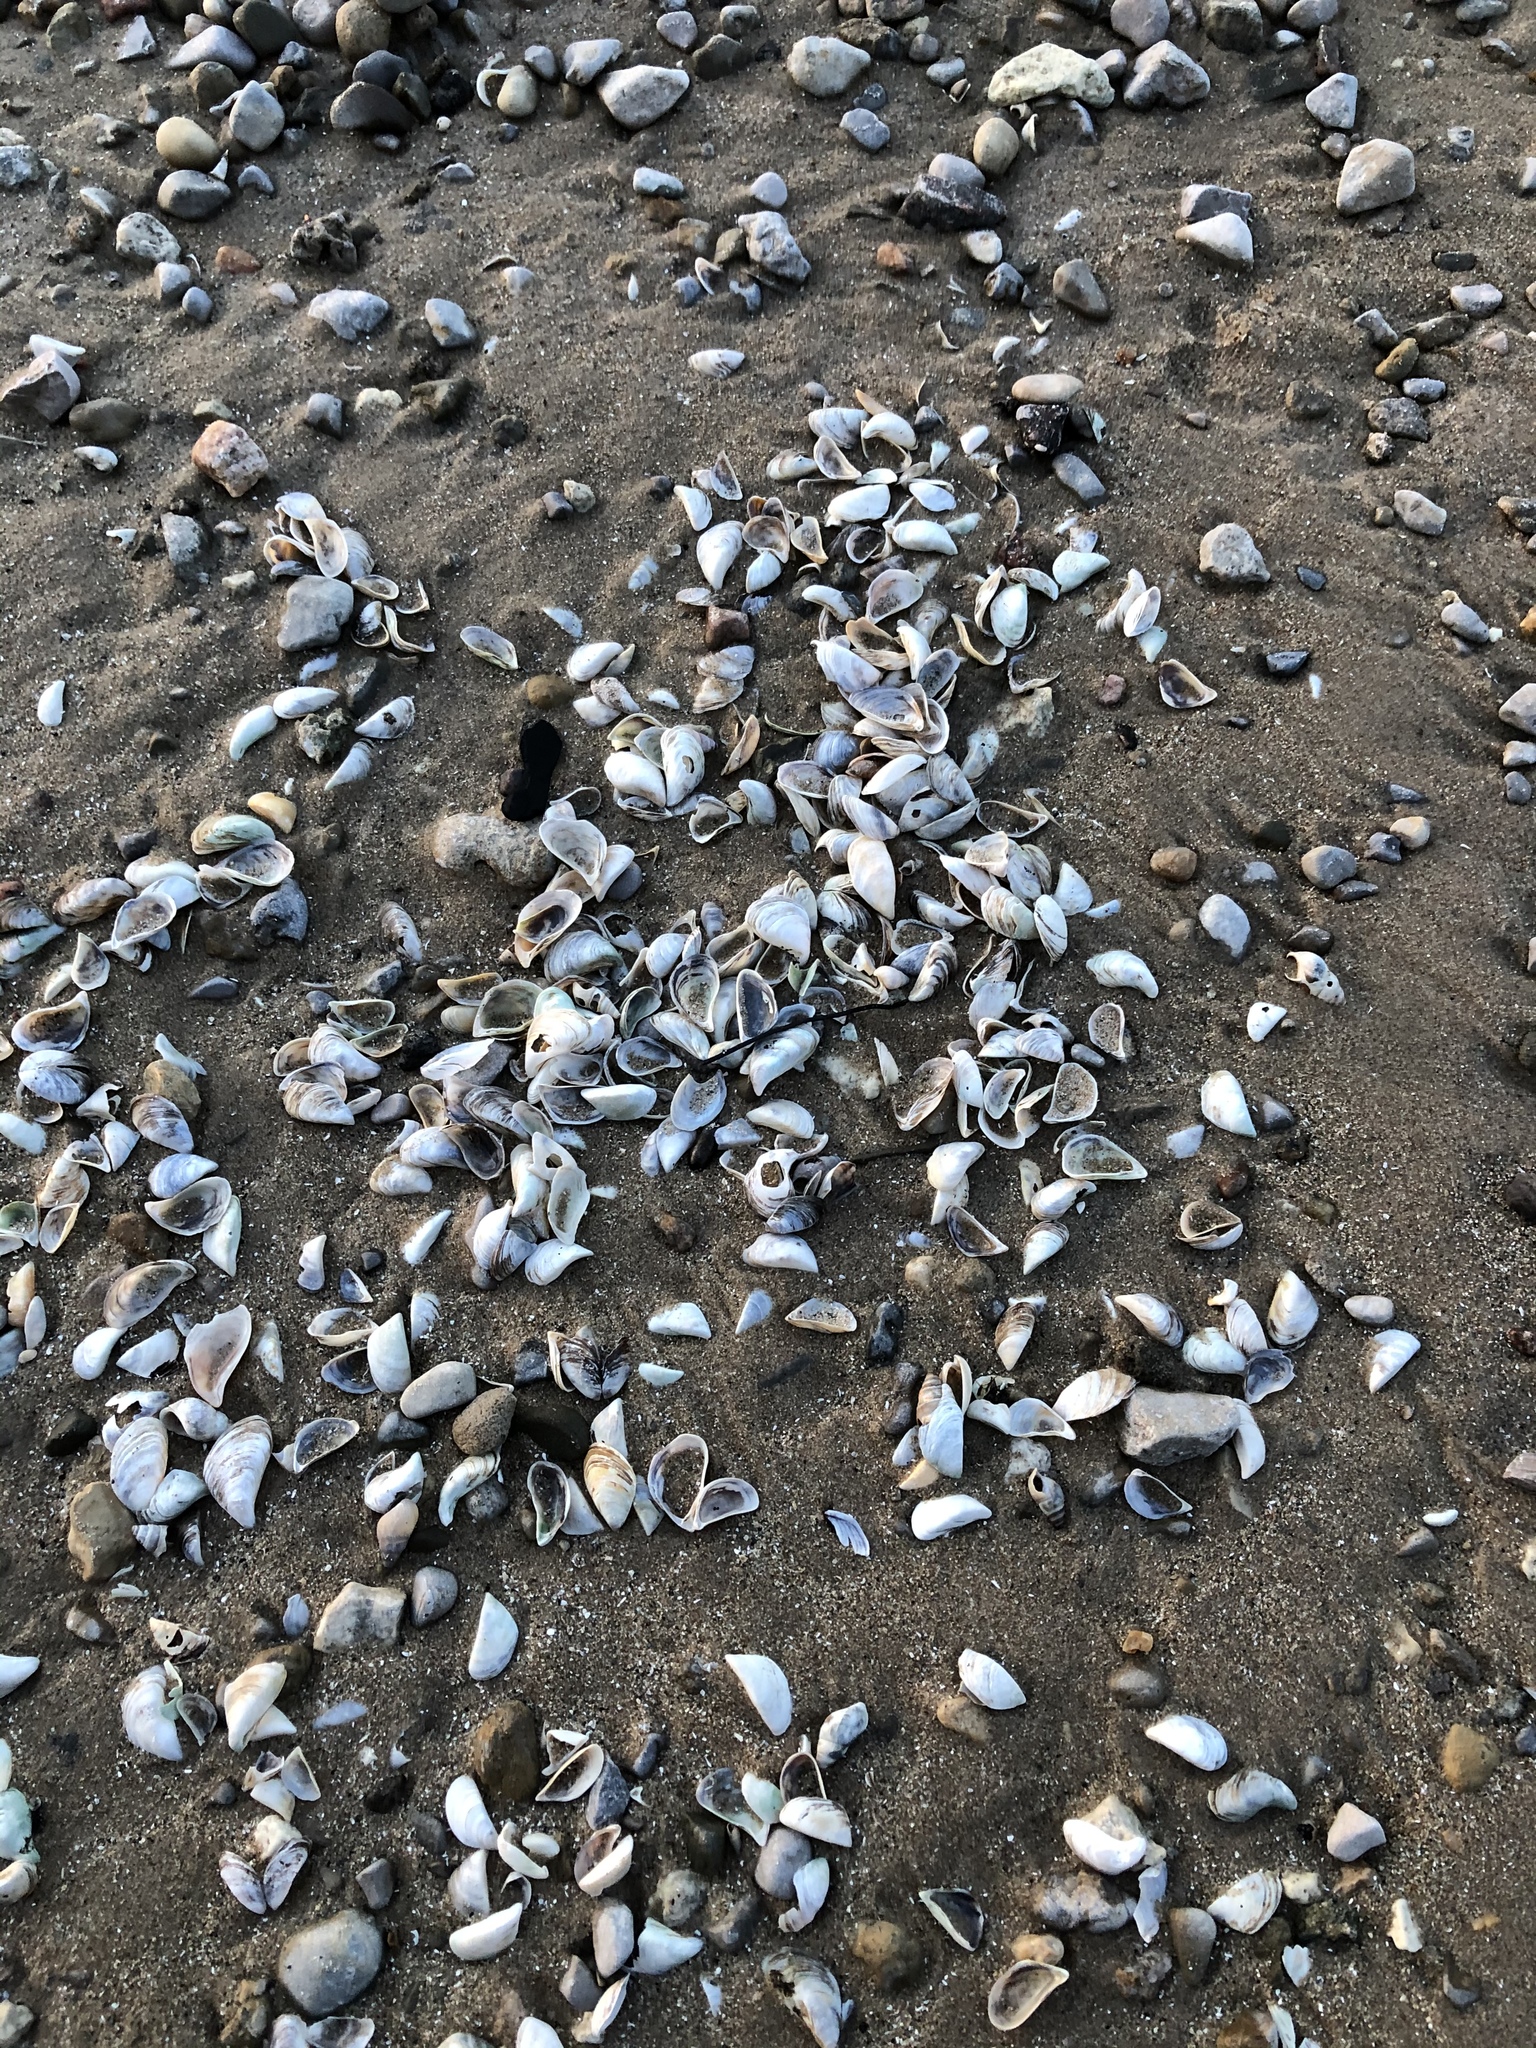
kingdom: Animalia
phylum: Mollusca
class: Bivalvia
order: Myida
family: Dreissenidae
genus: Dreissena
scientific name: Dreissena polymorpha
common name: Zebra mussel
